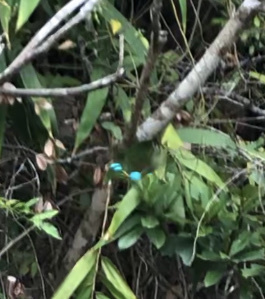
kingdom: Animalia
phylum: Arthropoda
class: Insecta
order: Lepidoptera
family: Papilionidae
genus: Papilio
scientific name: Papilio paris
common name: Paris peacock
